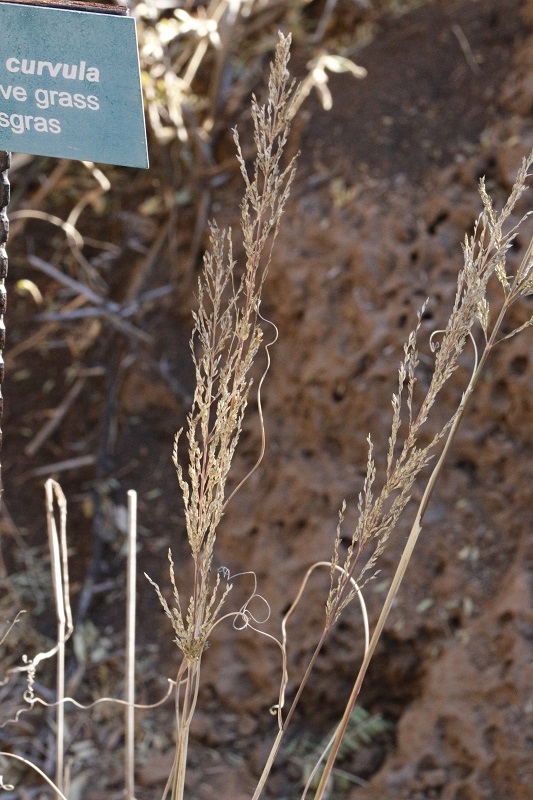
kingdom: Plantae
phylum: Tracheophyta
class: Liliopsida
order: Poales
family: Poaceae
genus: Eragrostis
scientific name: Eragrostis curvula
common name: African love-grass
